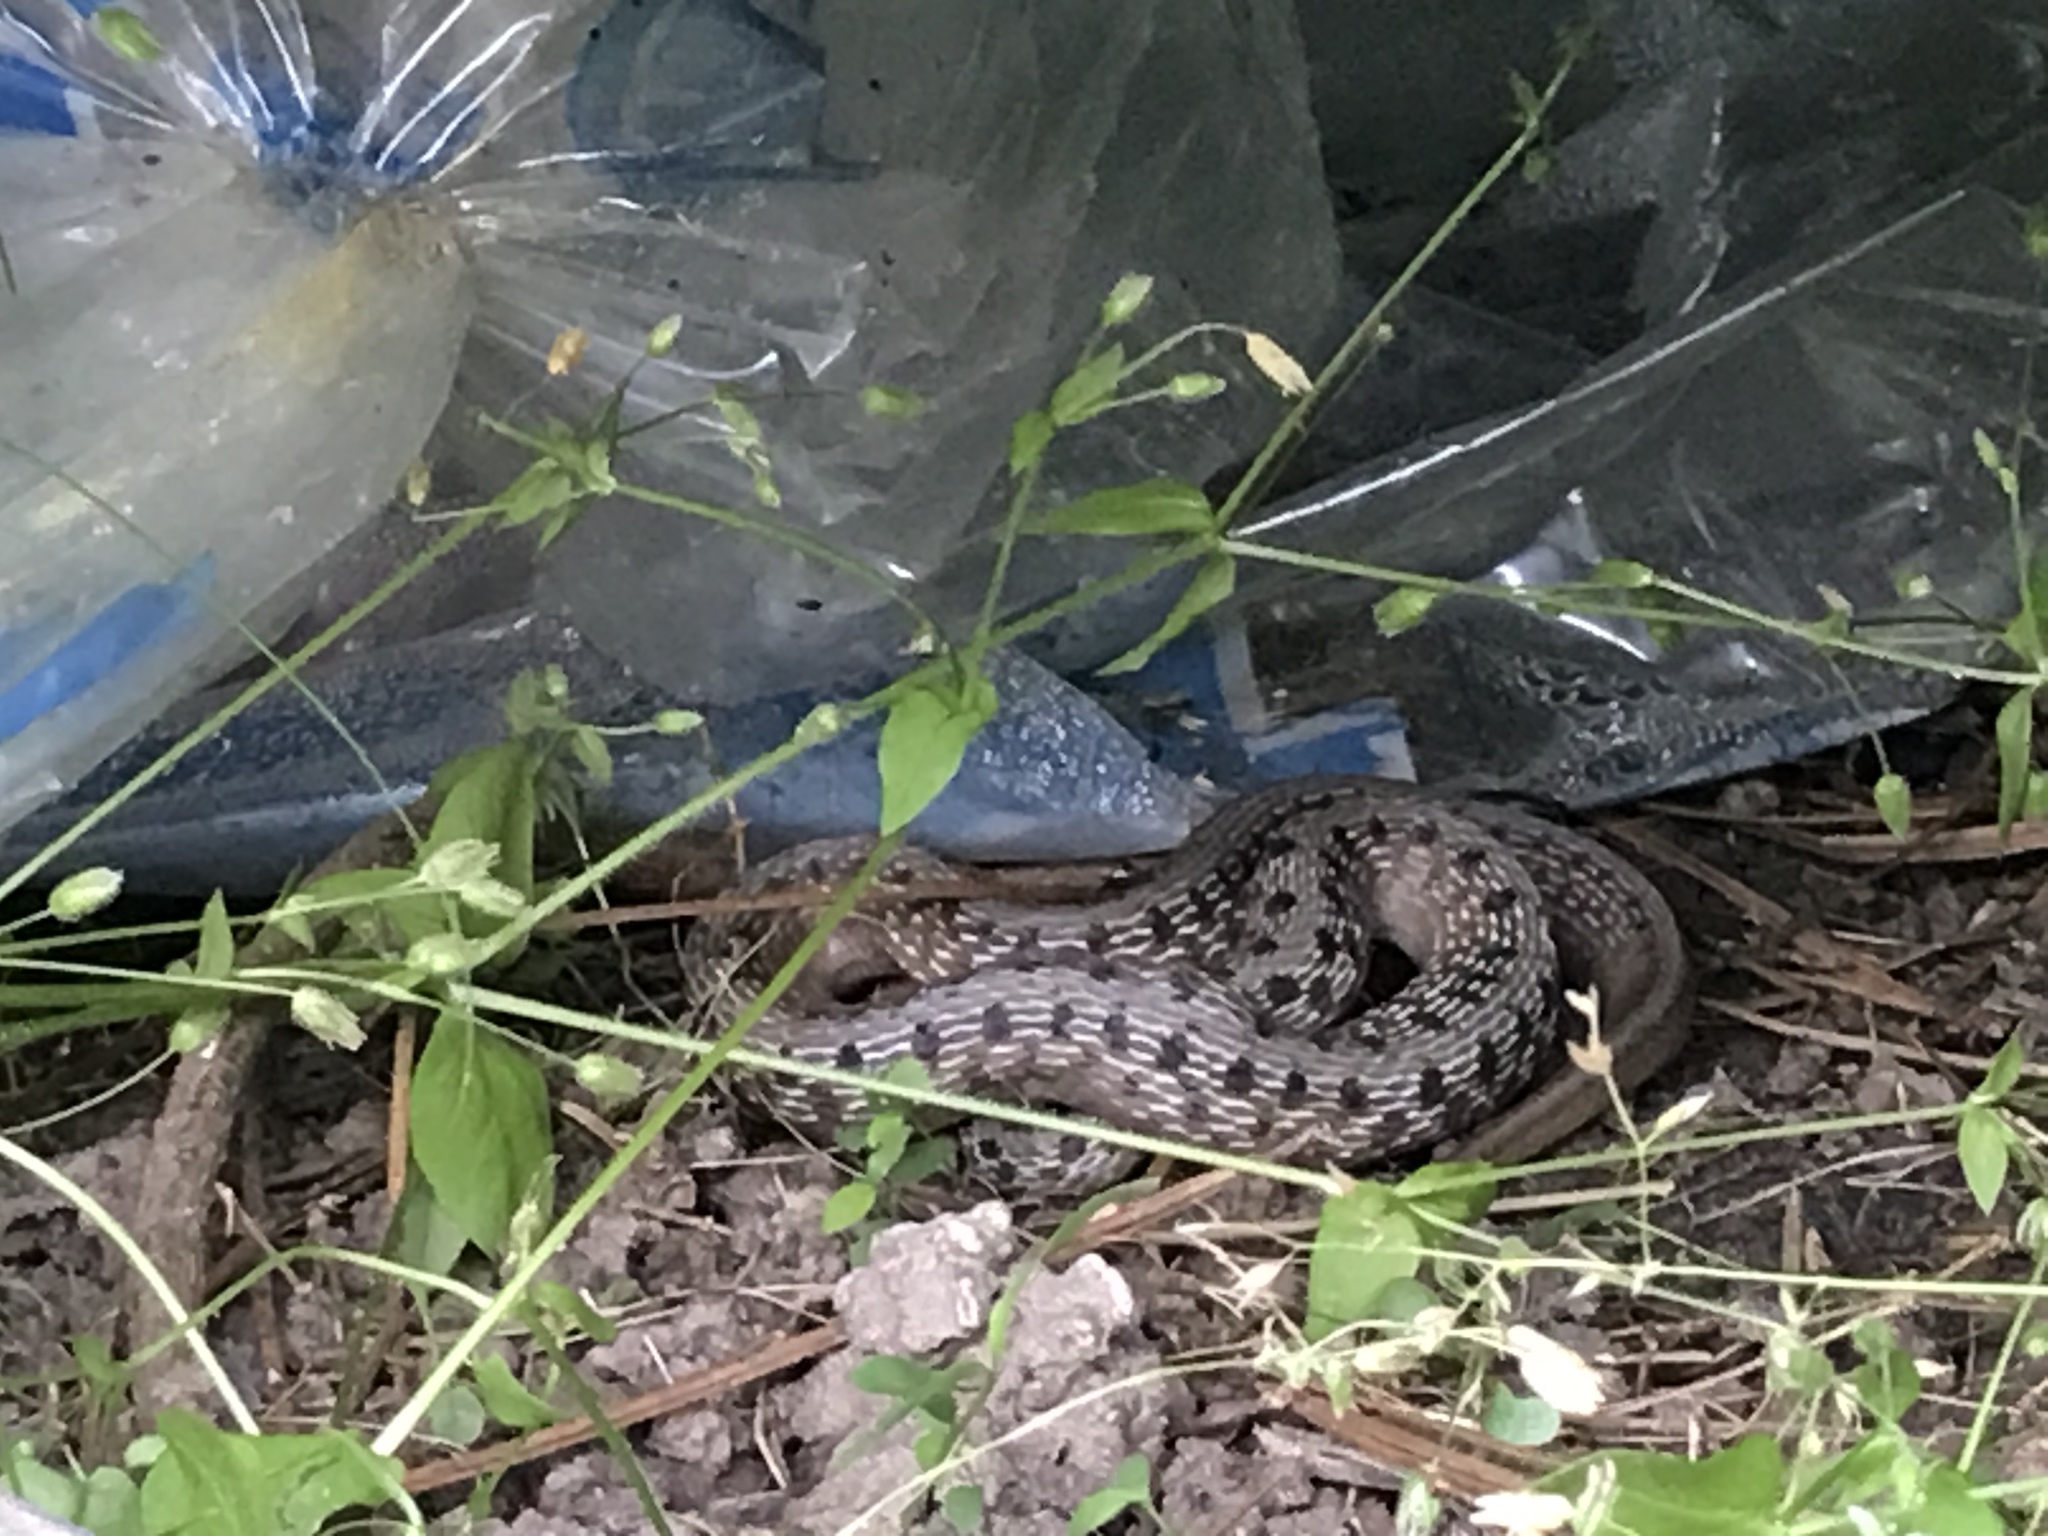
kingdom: Animalia
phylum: Chordata
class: Squamata
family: Colubridae
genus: Storeria
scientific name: Storeria dekayi
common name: (dekay’s) brown snake
